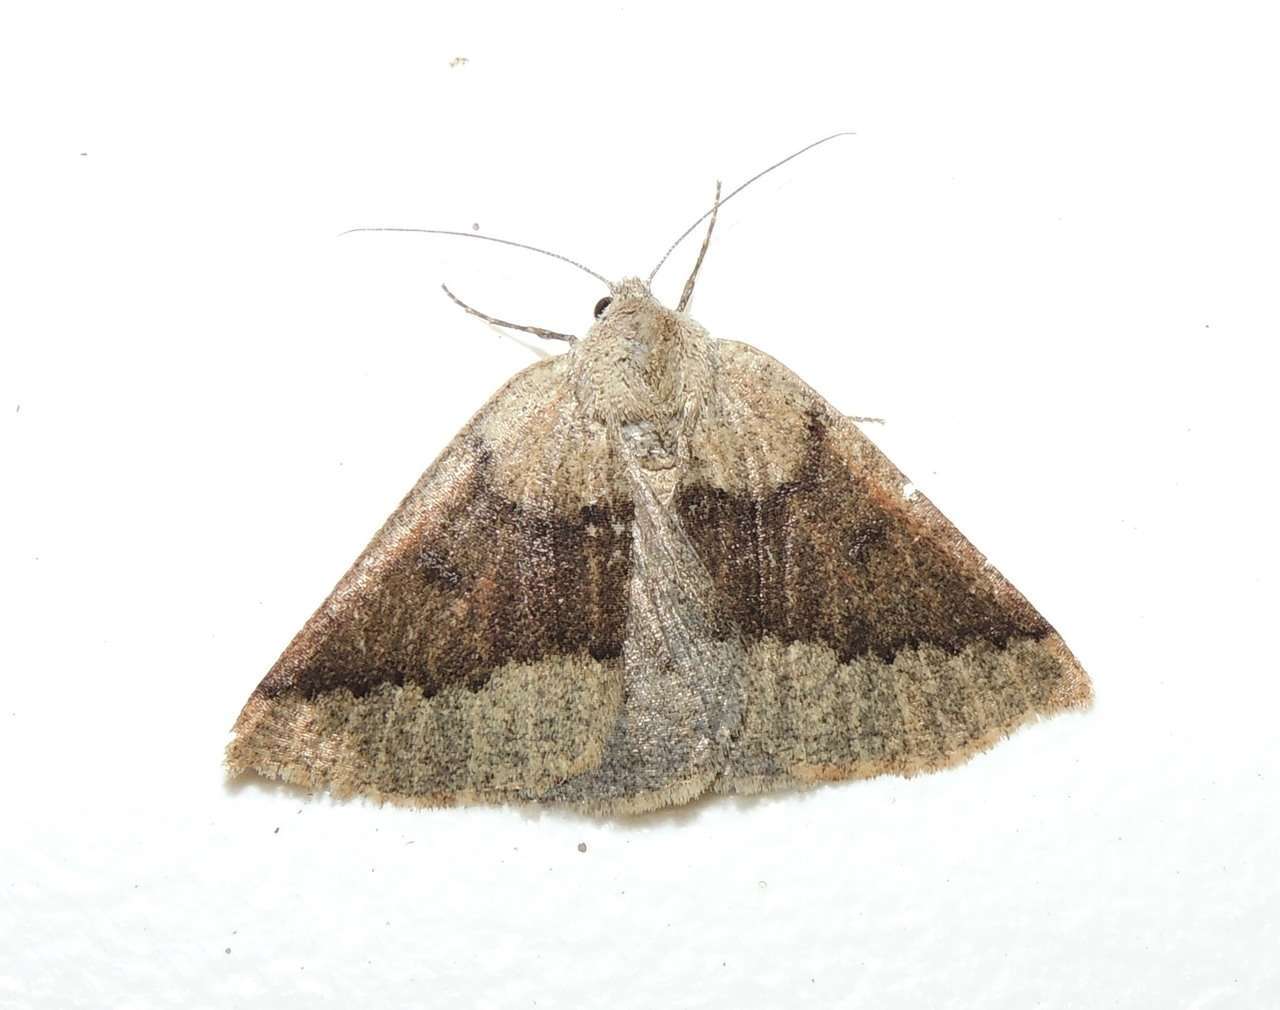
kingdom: Animalia
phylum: Arthropoda
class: Insecta
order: Lepidoptera
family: Geometridae
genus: Androchela
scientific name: Androchela milvaria
